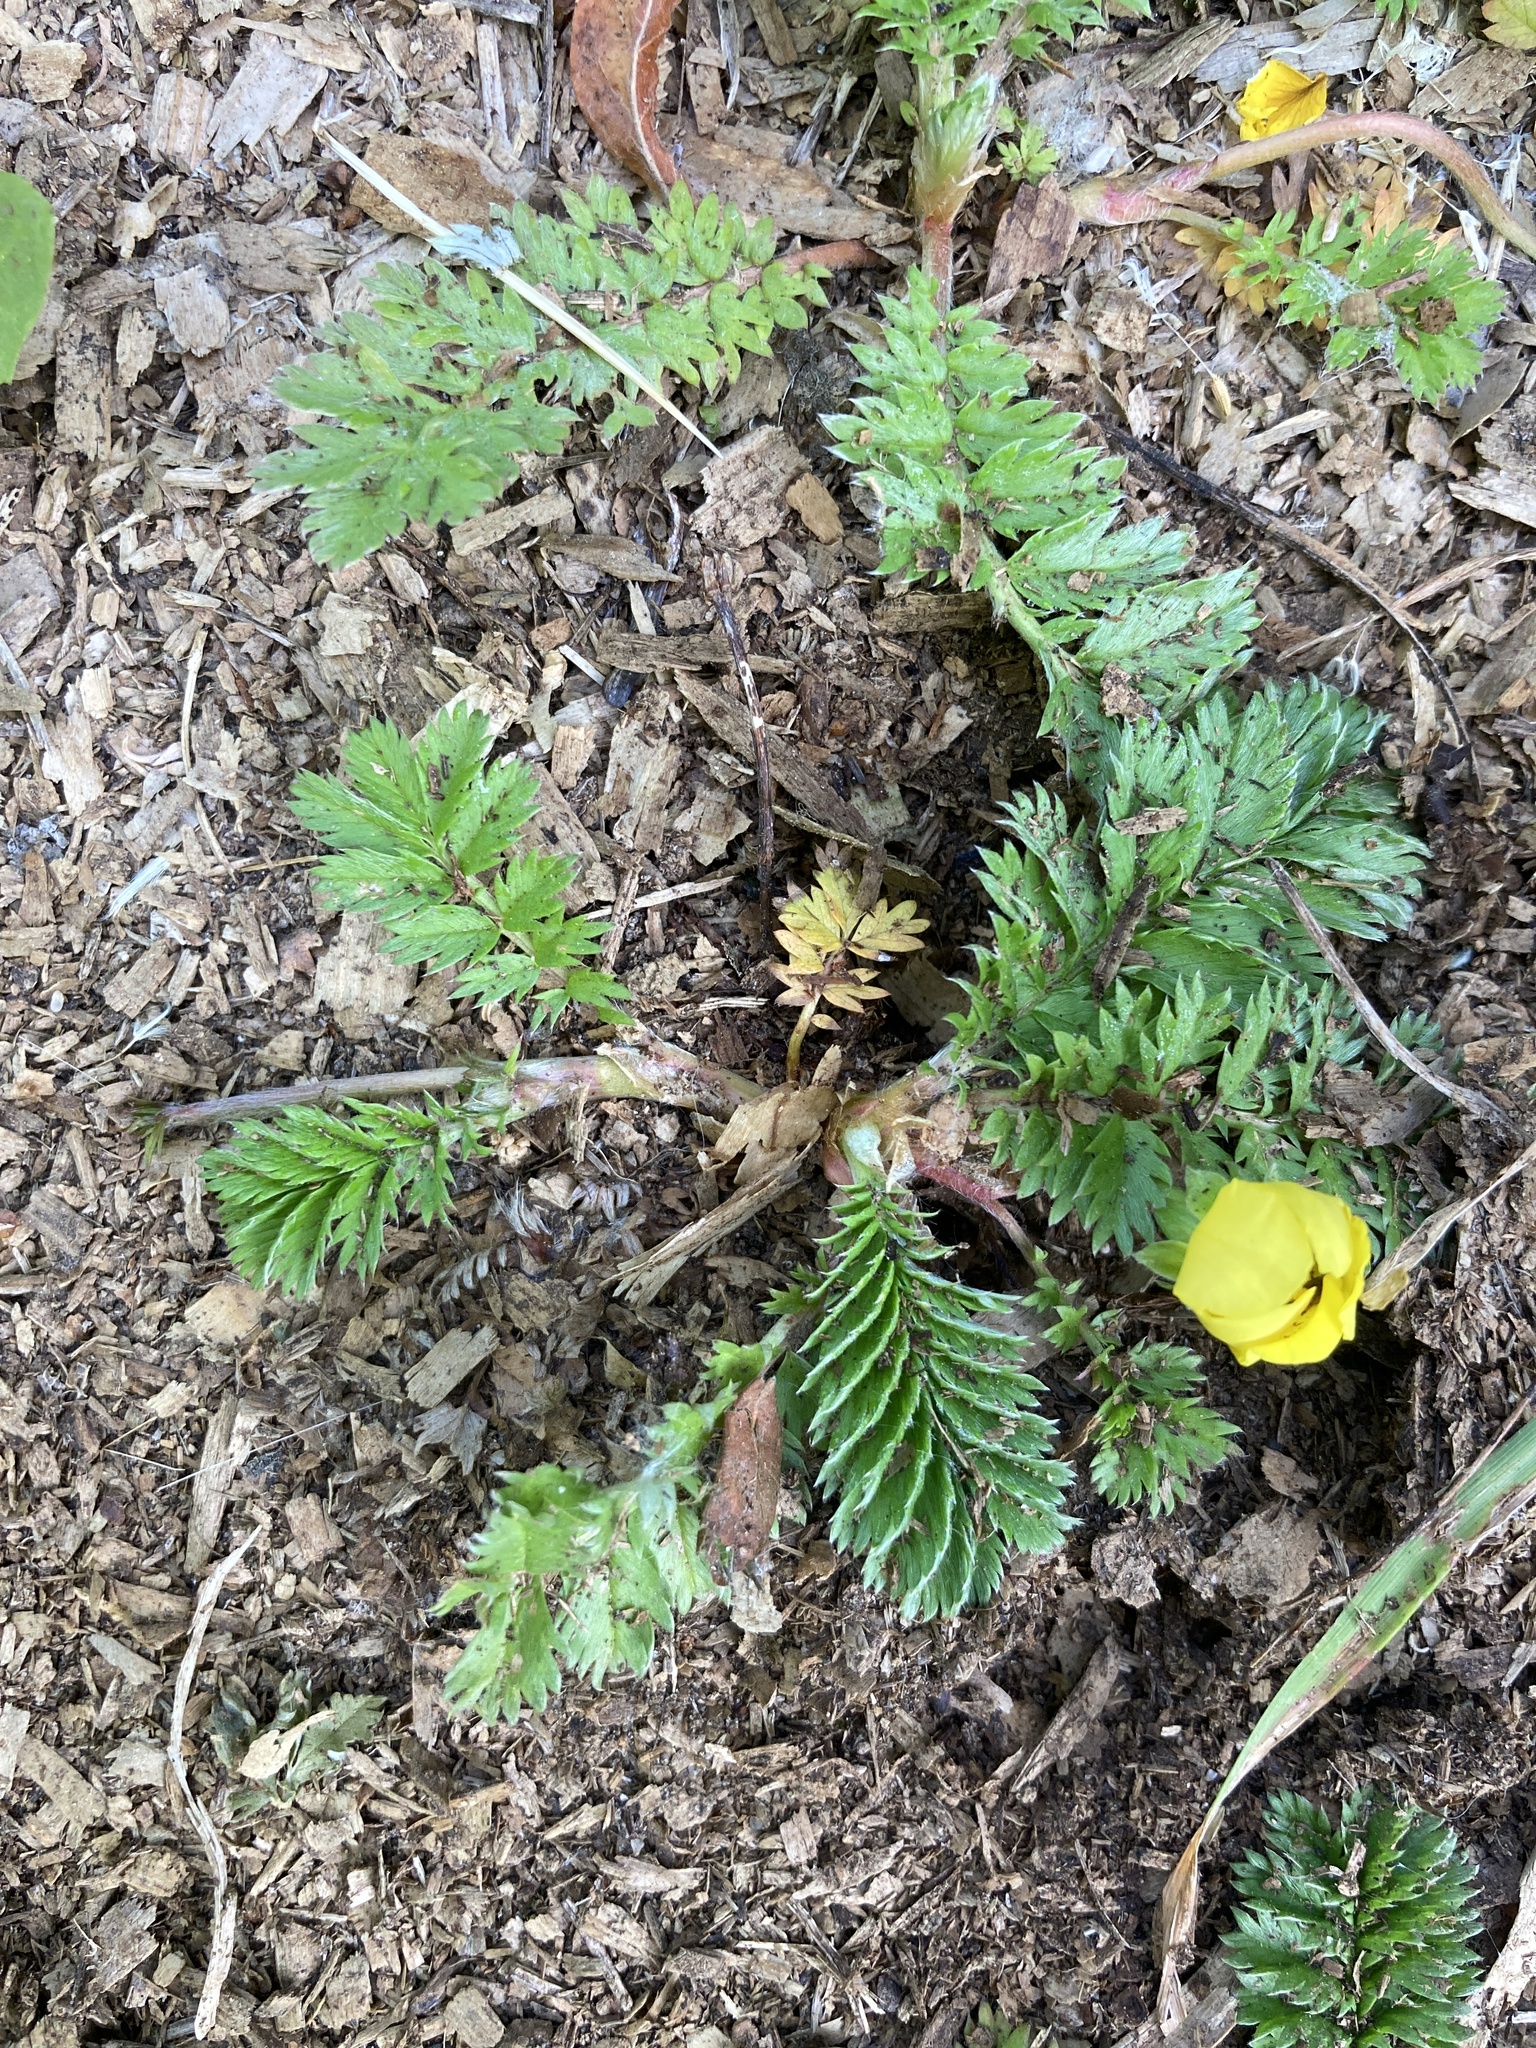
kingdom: Plantae
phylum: Tracheophyta
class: Magnoliopsida
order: Rosales
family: Rosaceae
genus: Argentina
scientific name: Argentina anserina
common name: Common silverweed
